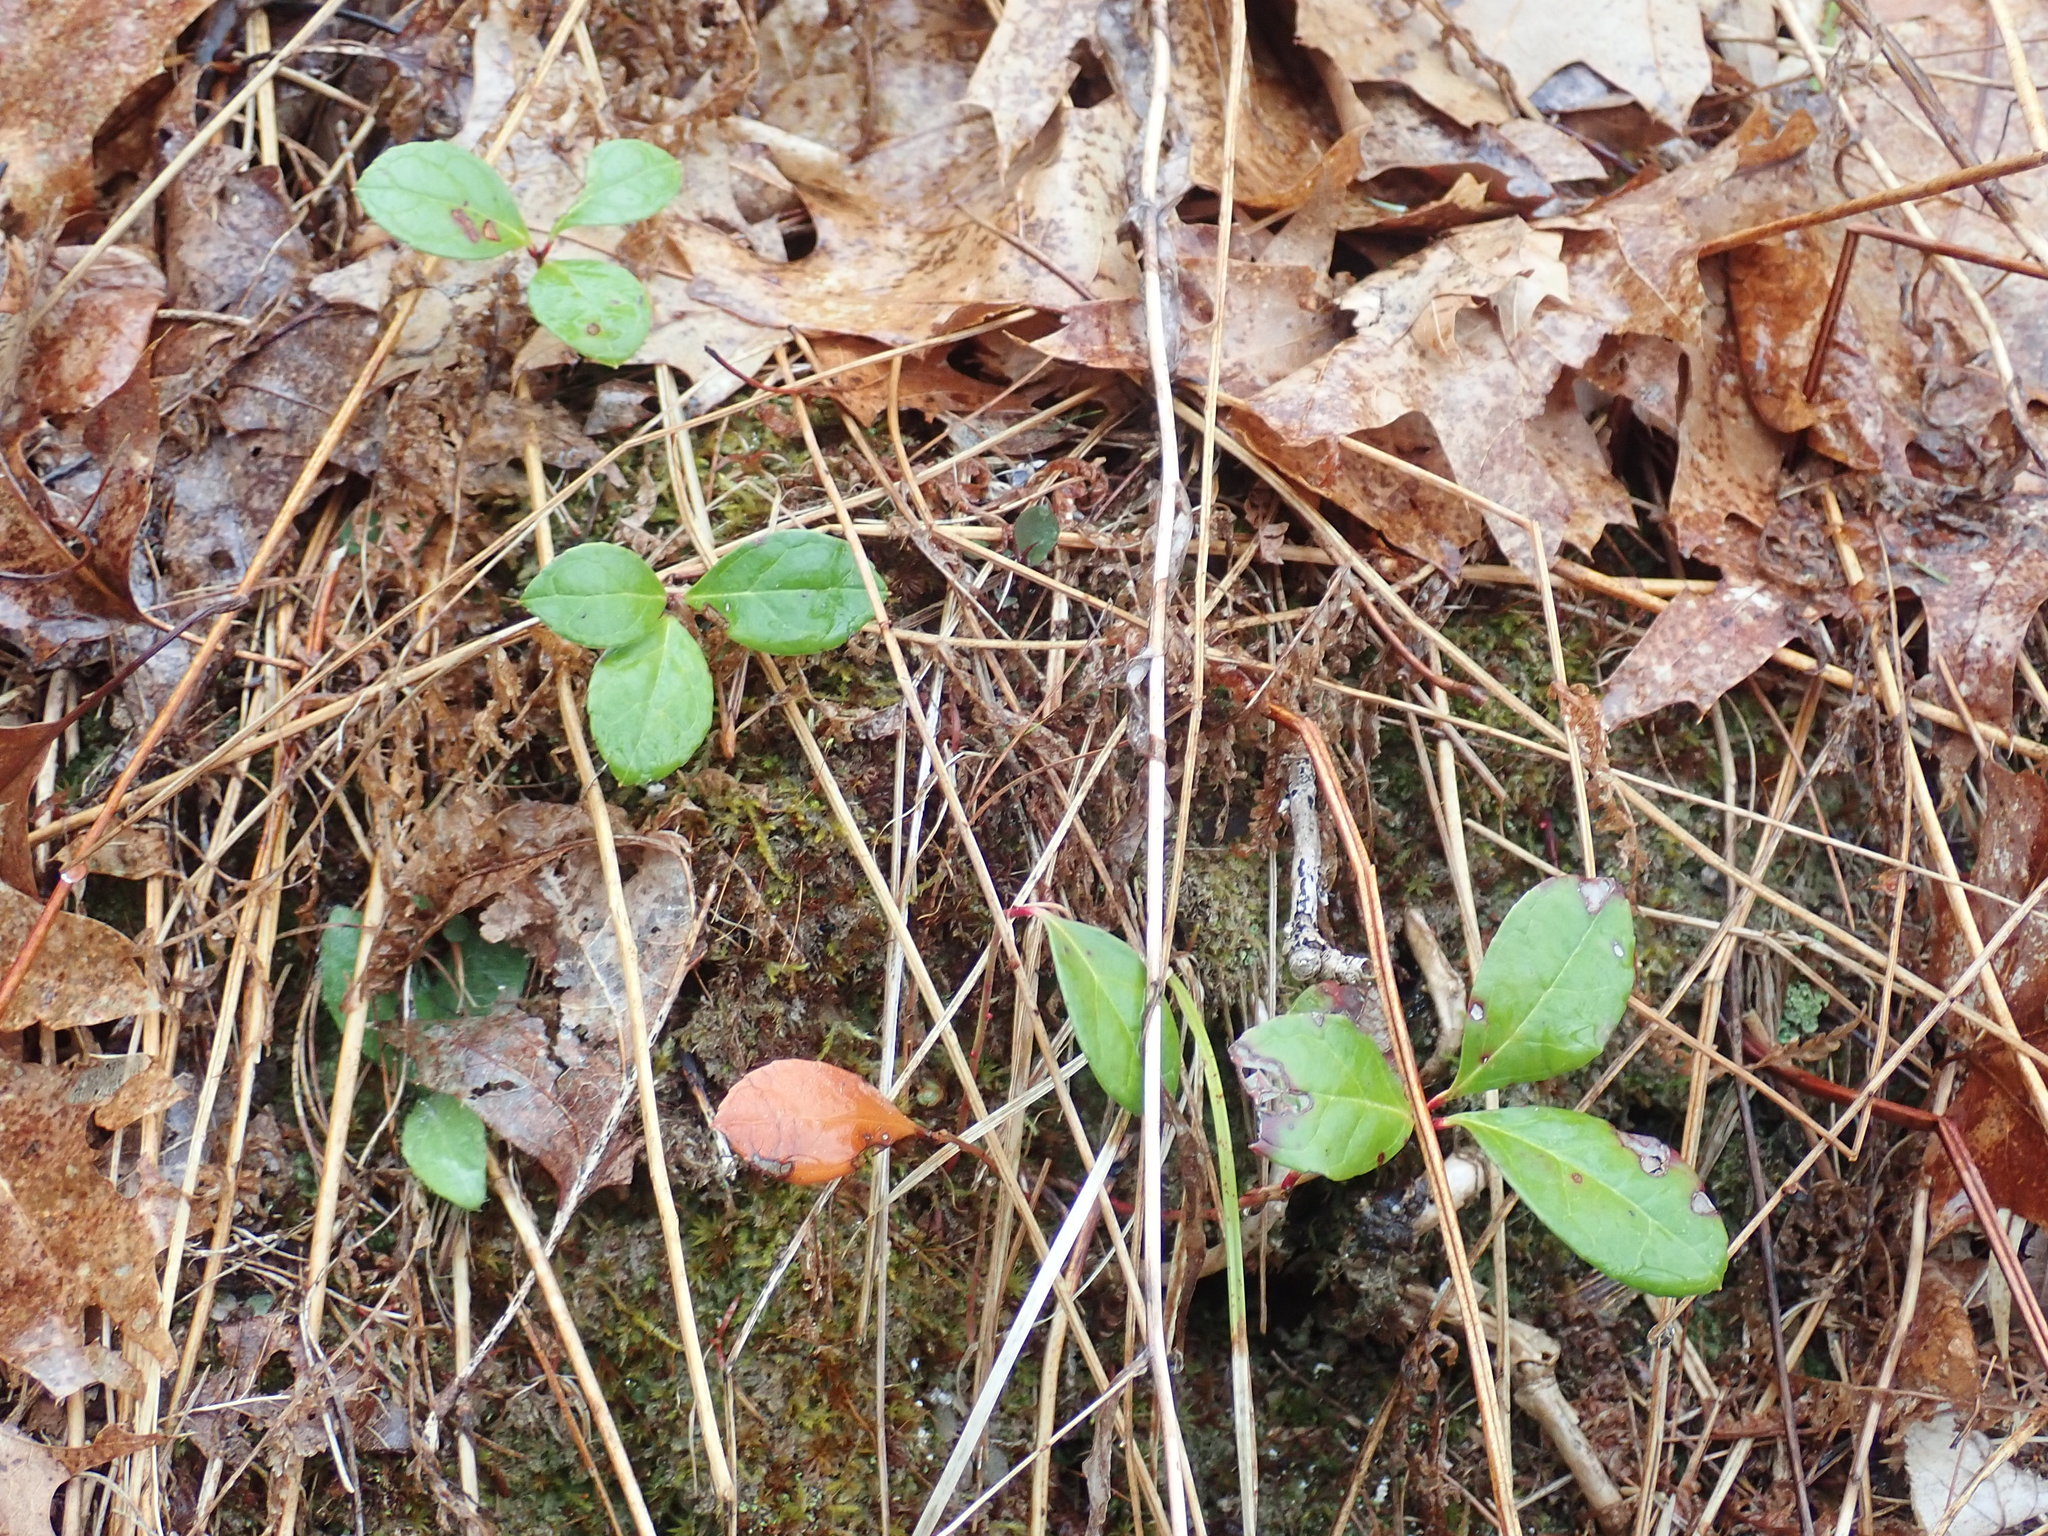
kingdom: Plantae
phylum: Tracheophyta
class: Magnoliopsida
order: Ericales
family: Ericaceae
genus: Gaultheria
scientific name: Gaultheria procumbens
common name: Checkerberry
